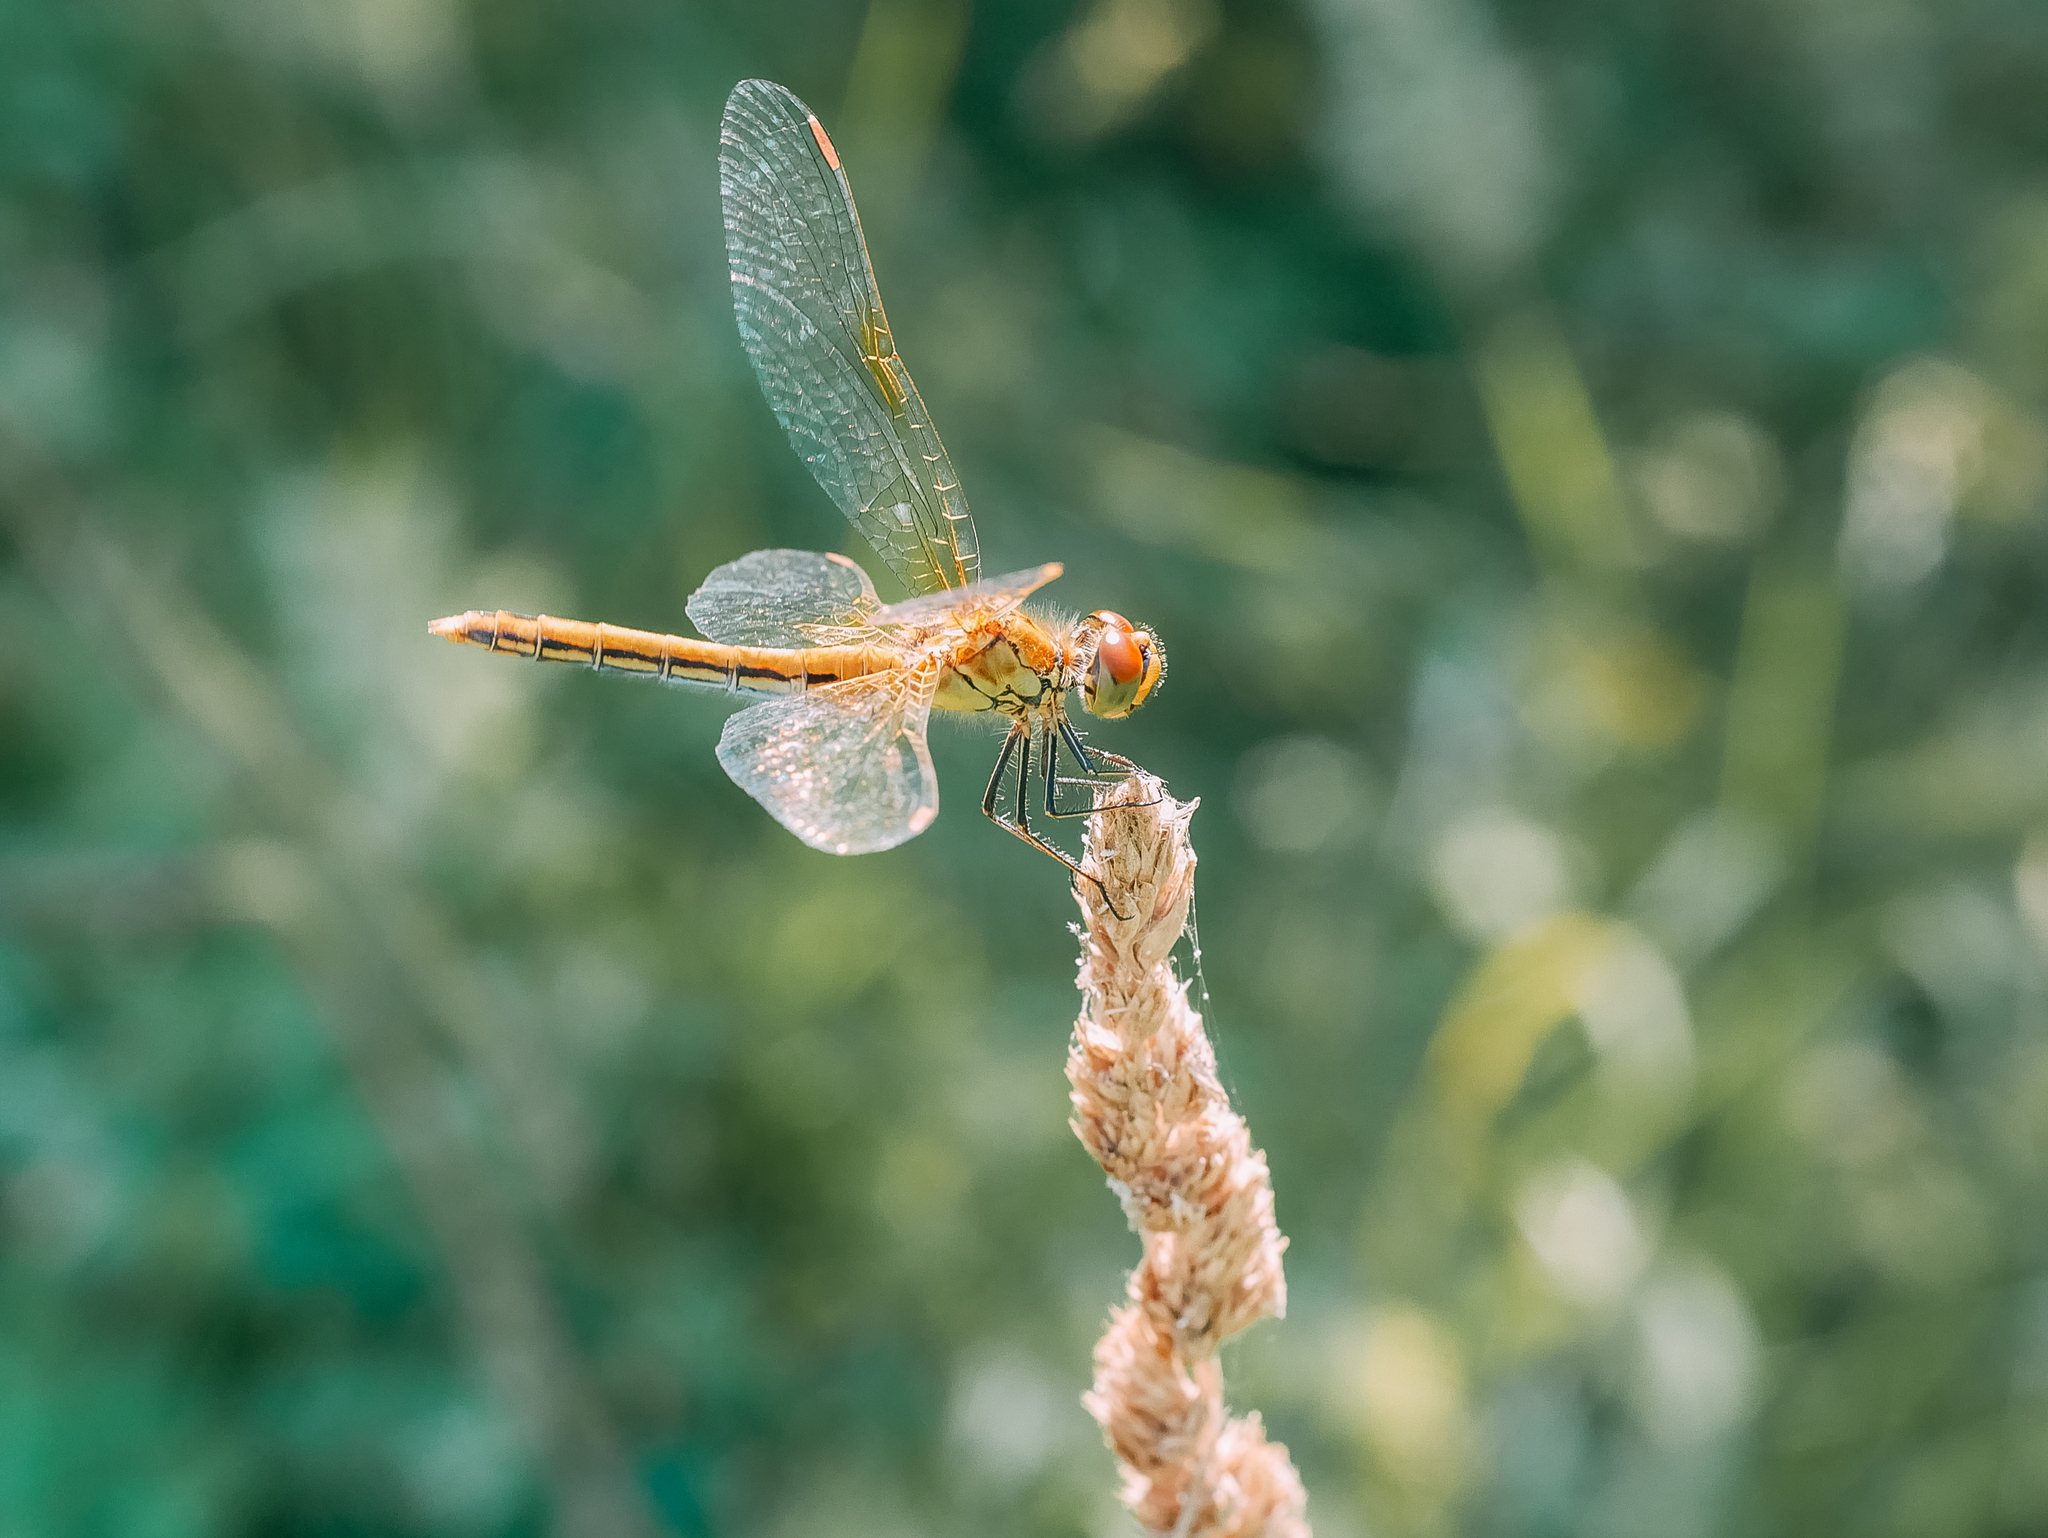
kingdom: Animalia
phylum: Arthropoda
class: Insecta
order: Odonata
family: Libellulidae
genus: Sympetrum
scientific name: Sympetrum flaveolum
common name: Yellow-winged darter
